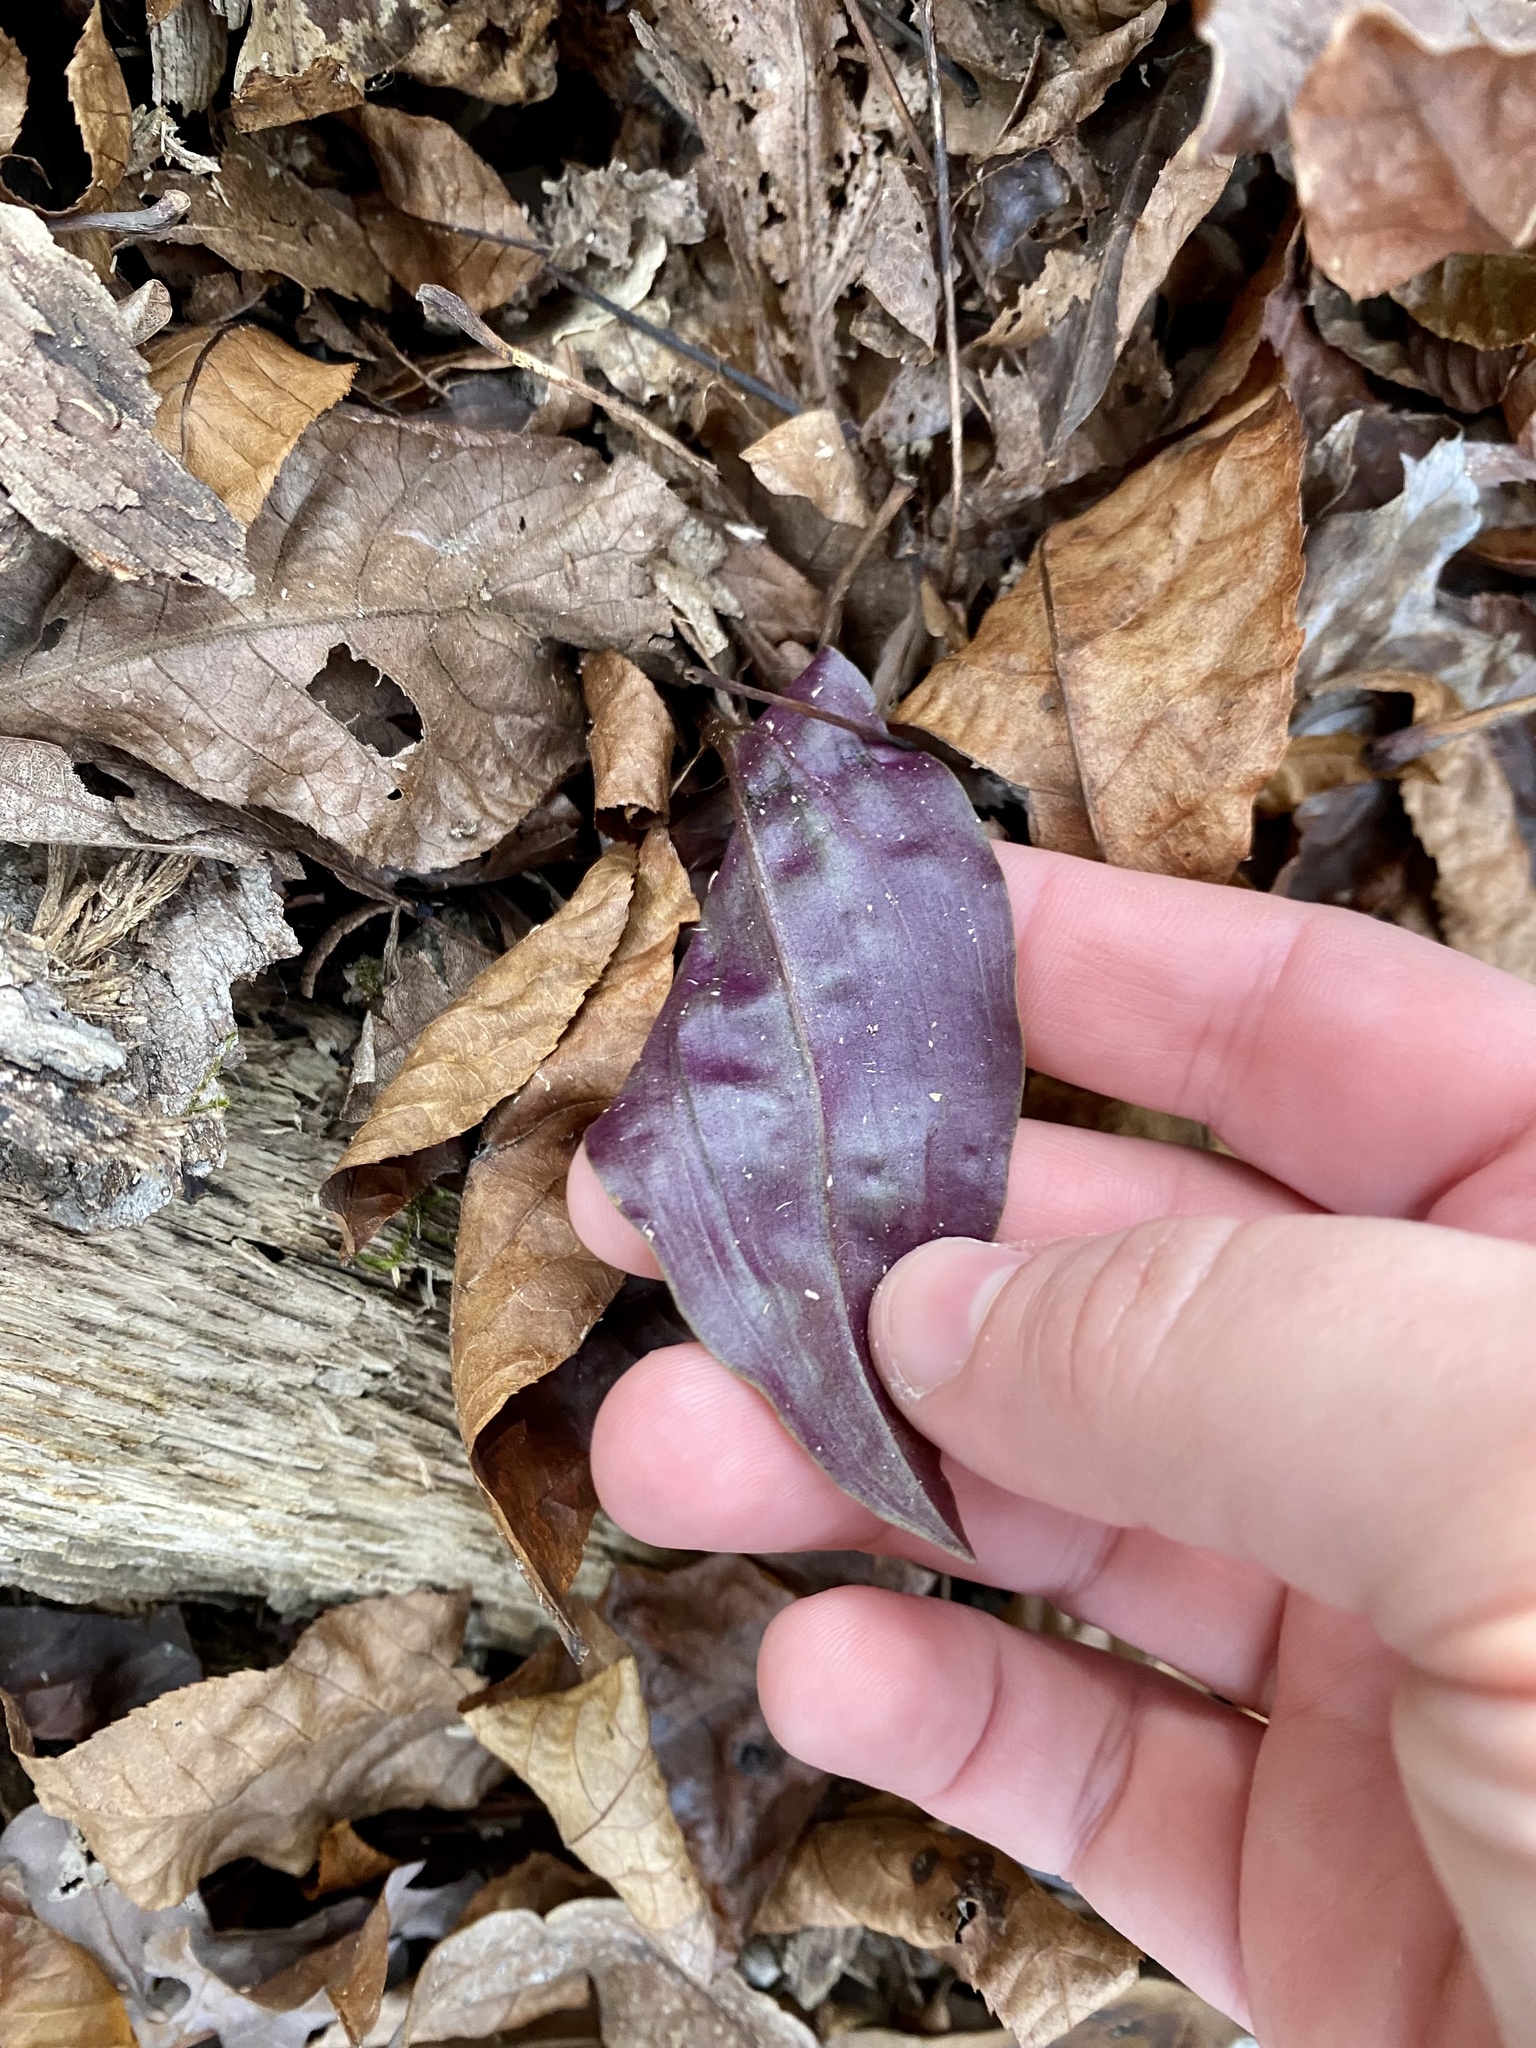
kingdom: Plantae
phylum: Tracheophyta
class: Liliopsida
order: Asparagales
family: Orchidaceae
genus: Tipularia
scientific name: Tipularia discolor
